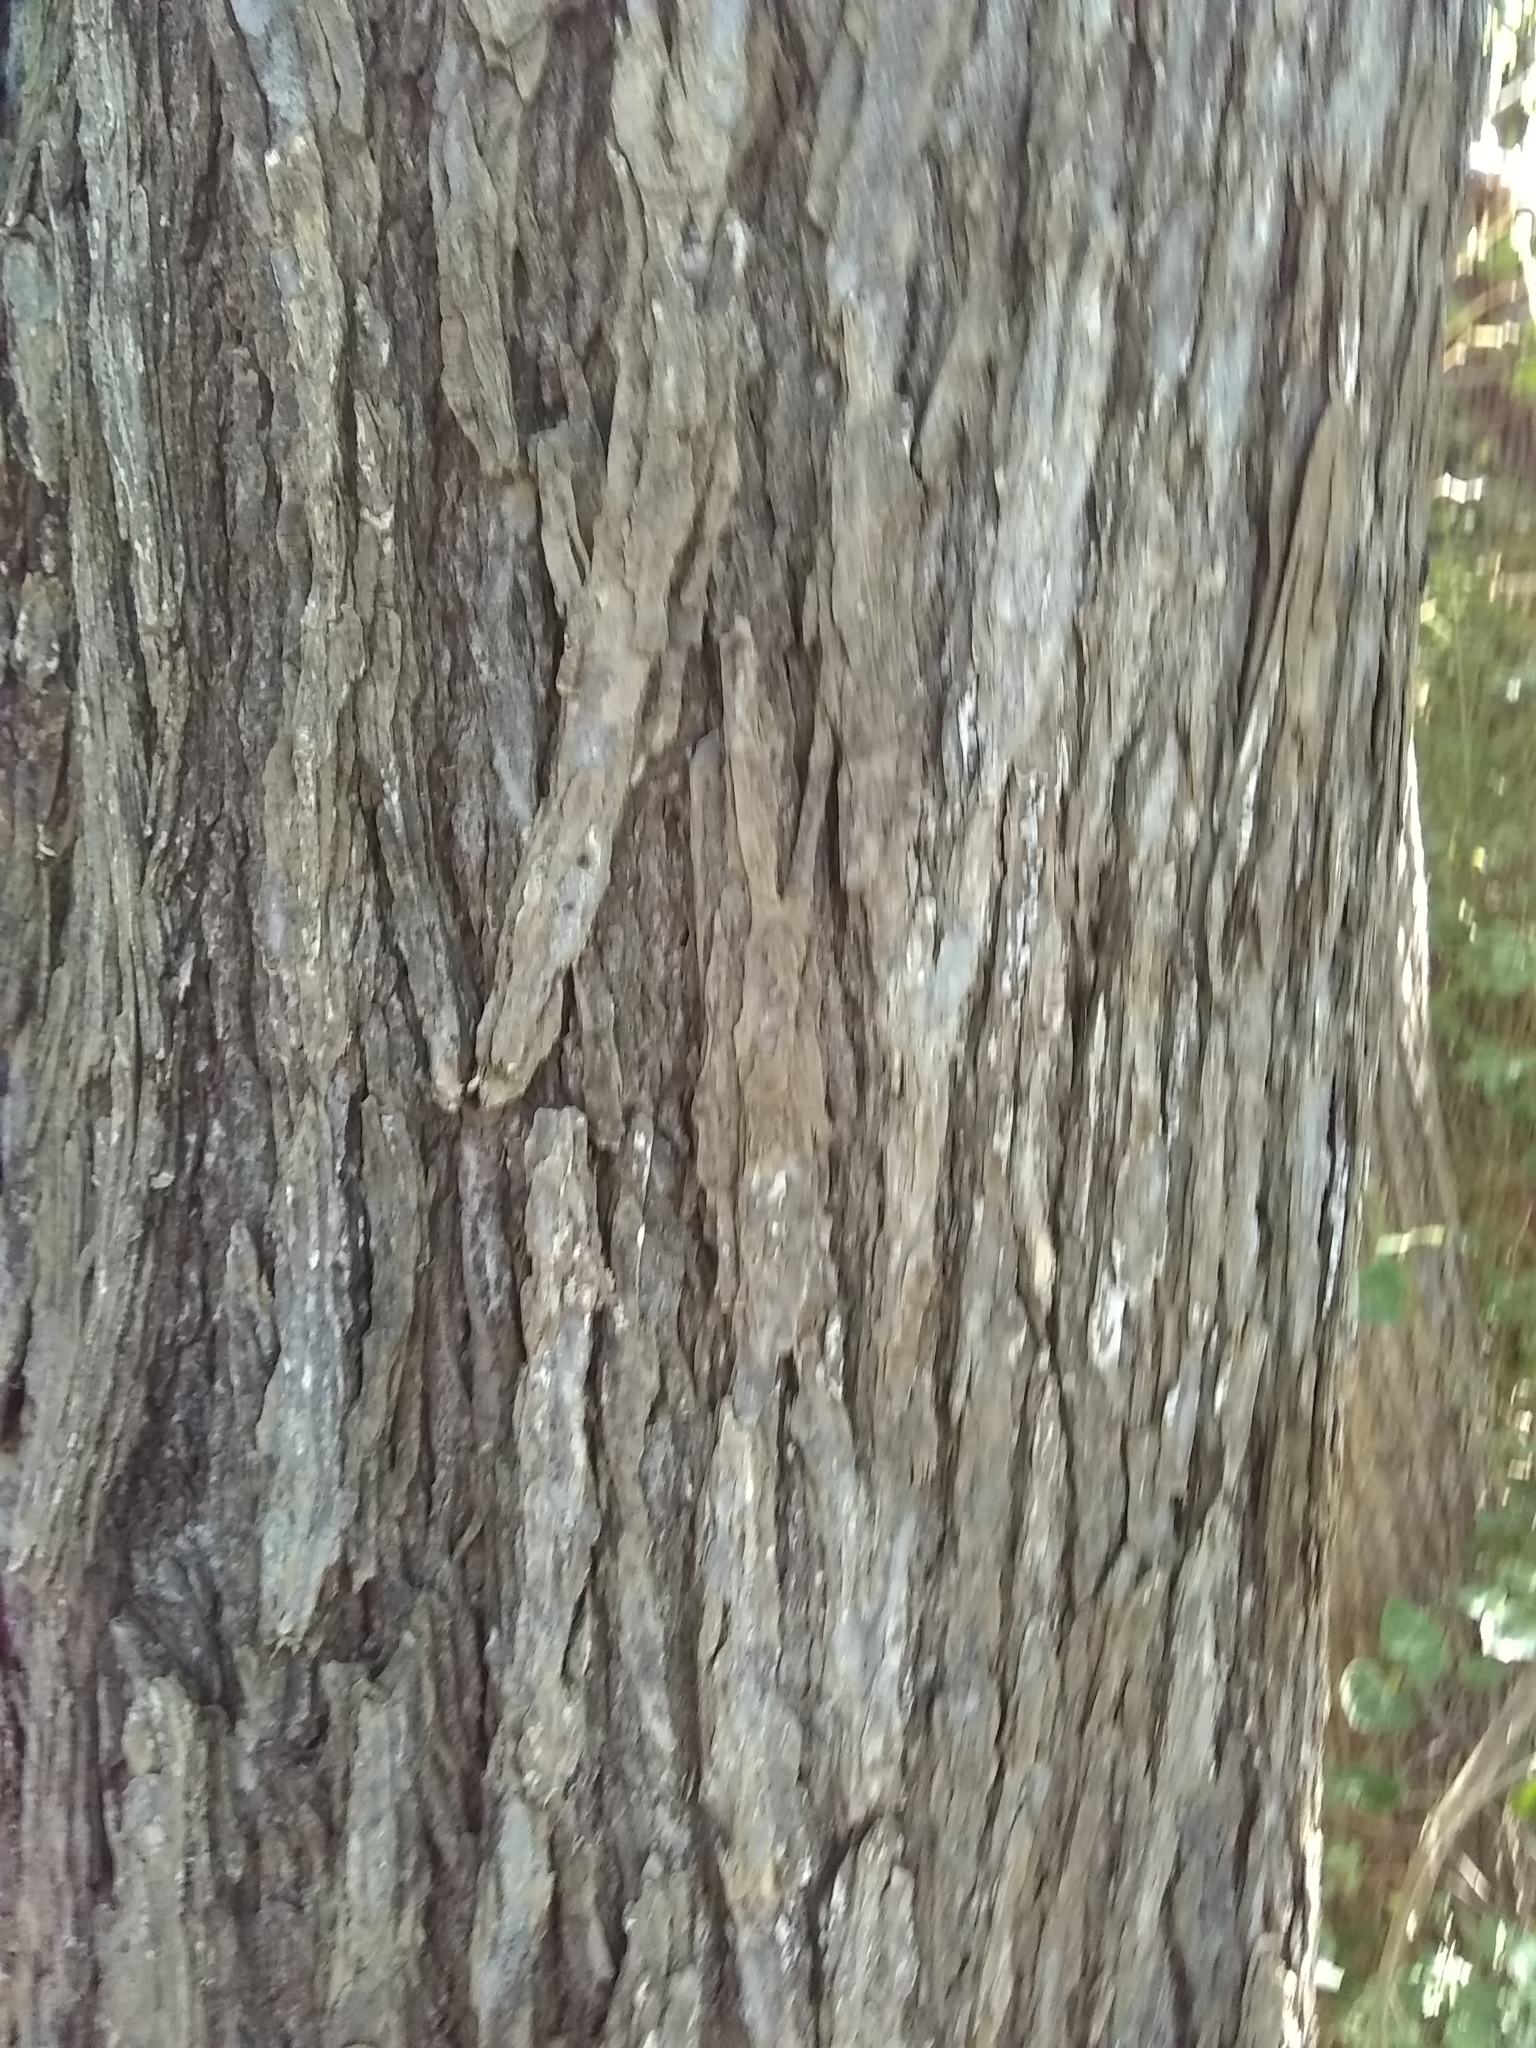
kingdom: Plantae
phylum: Tracheophyta
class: Magnoliopsida
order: Rosales
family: Ulmaceae
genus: Ulmus
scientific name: Ulmus americana
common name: American elm
